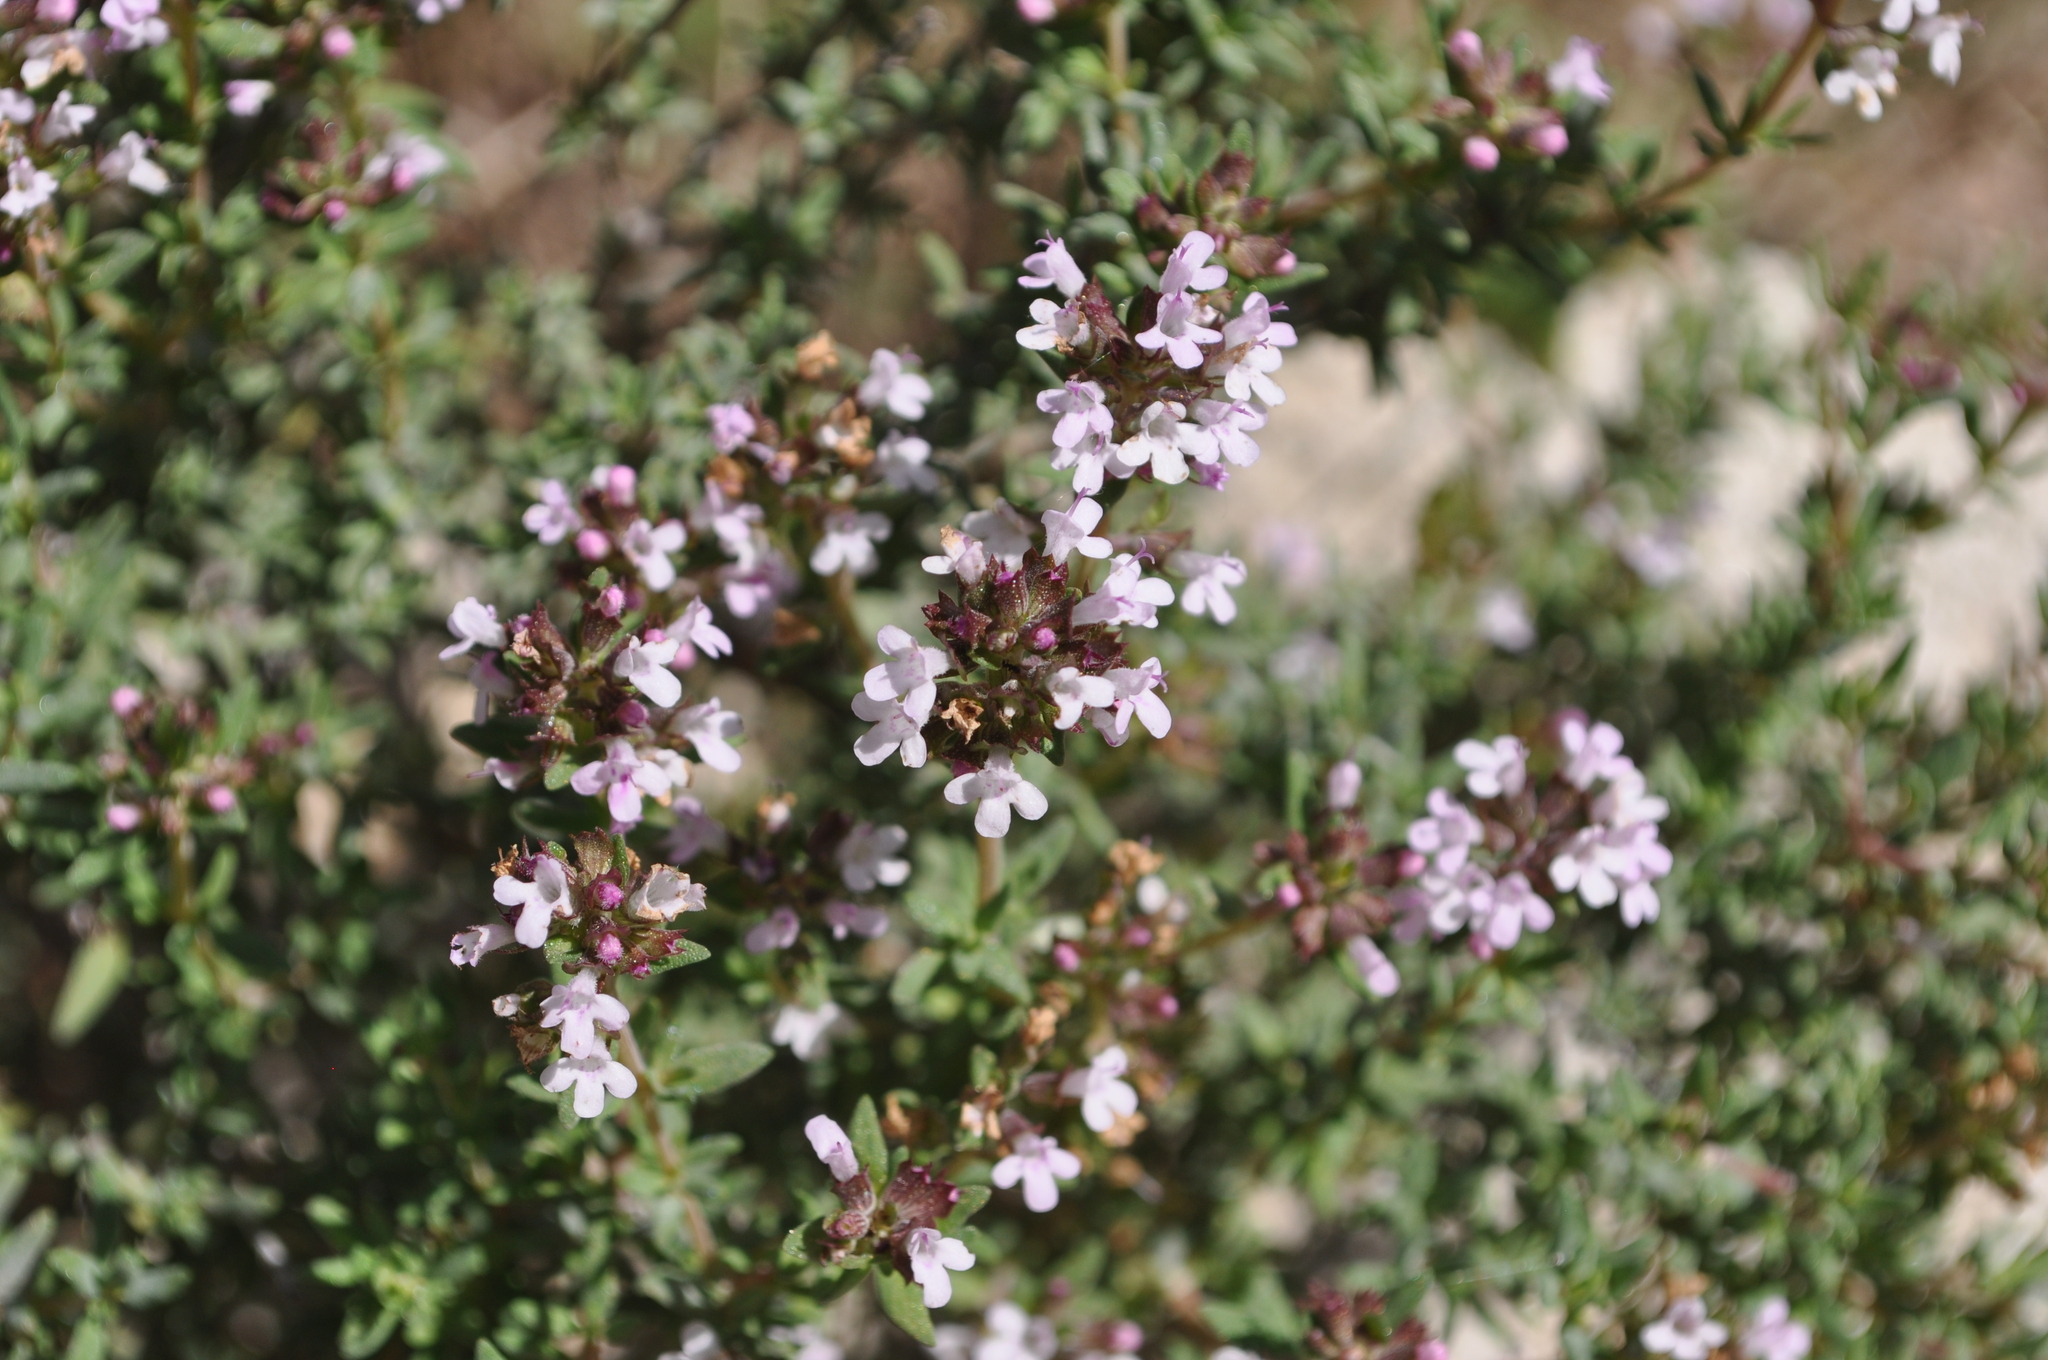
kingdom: Plantae
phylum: Tracheophyta
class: Magnoliopsida
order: Lamiales
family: Lamiaceae
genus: Thymus
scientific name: Thymus vulgaris
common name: Garden thyme
